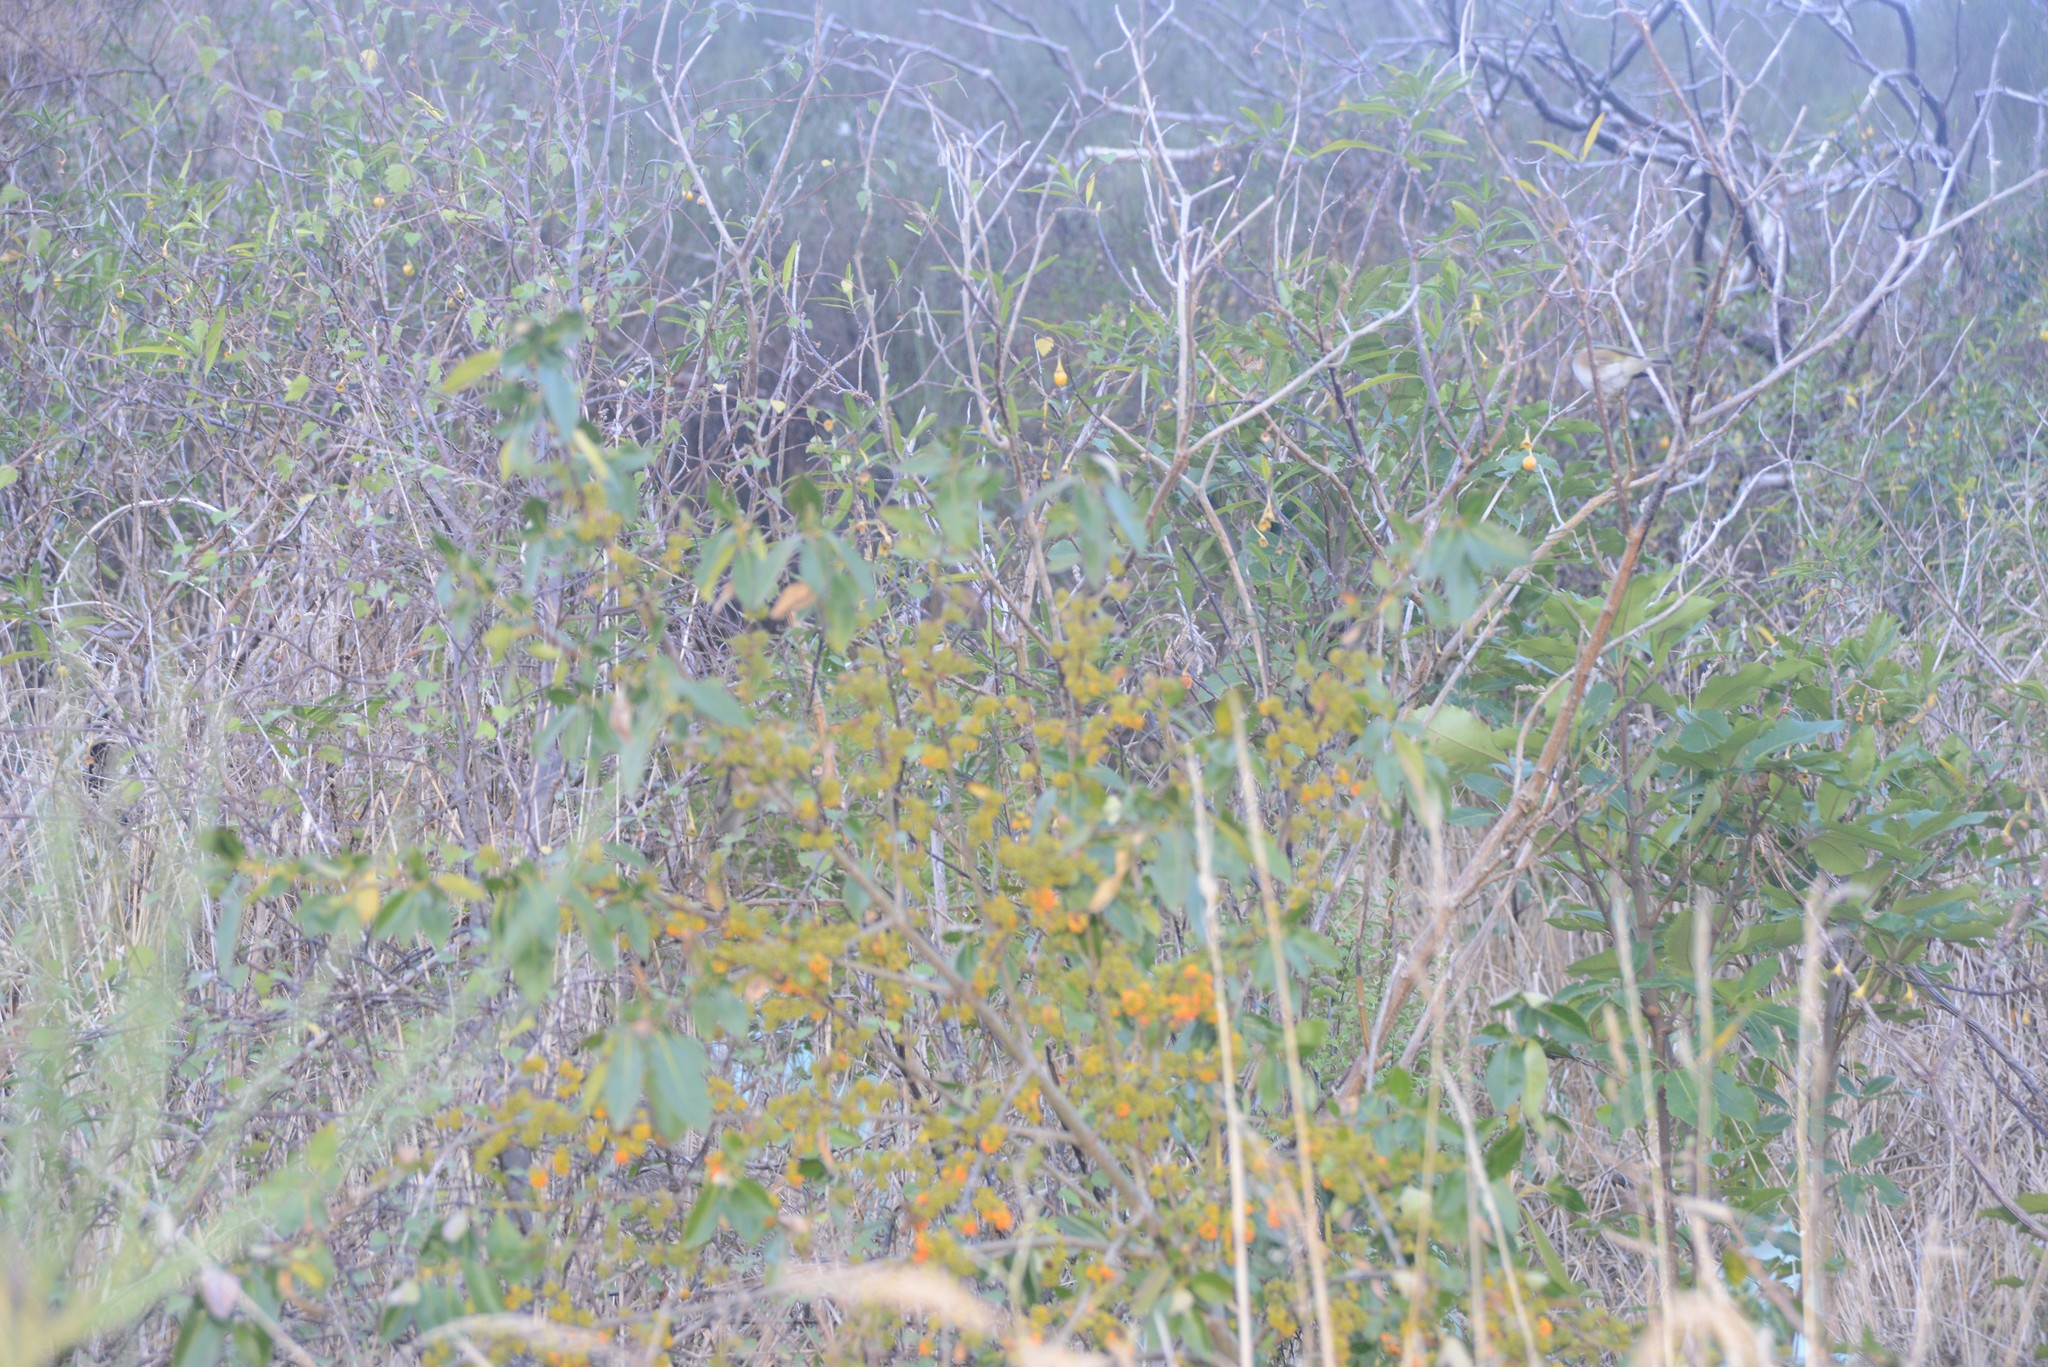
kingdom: Animalia
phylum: Chordata
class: Aves
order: Passeriformes
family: Zosteropidae
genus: Zosterops
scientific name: Zosterops lateralis
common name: Silvereye
